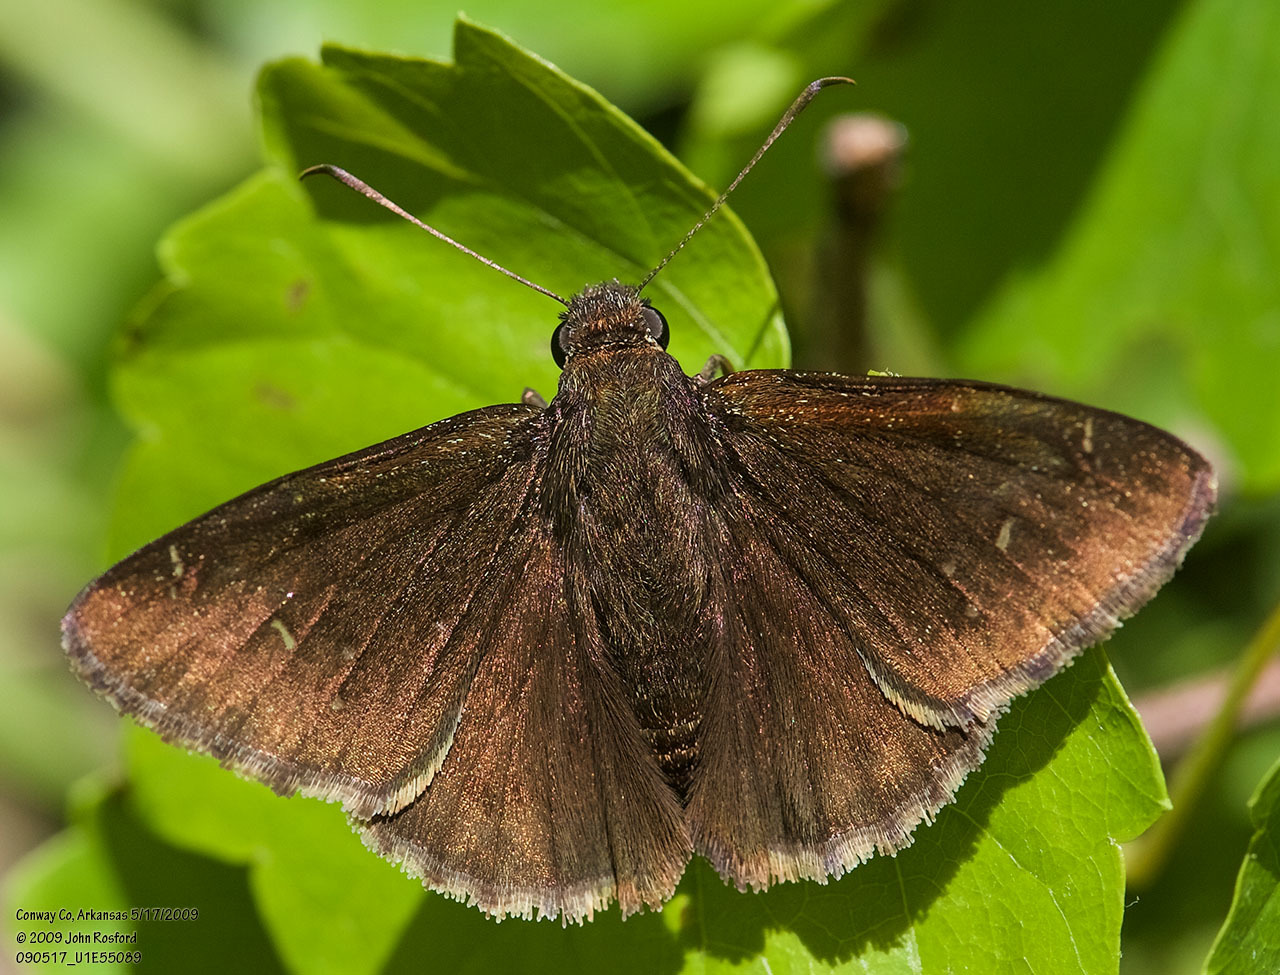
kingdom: Animalia
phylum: Arthropoda
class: Insecta
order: Lepidoptera
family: Hesperiidae
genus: Thorybes
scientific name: Thorybes pylades
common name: Northern cloudywing
